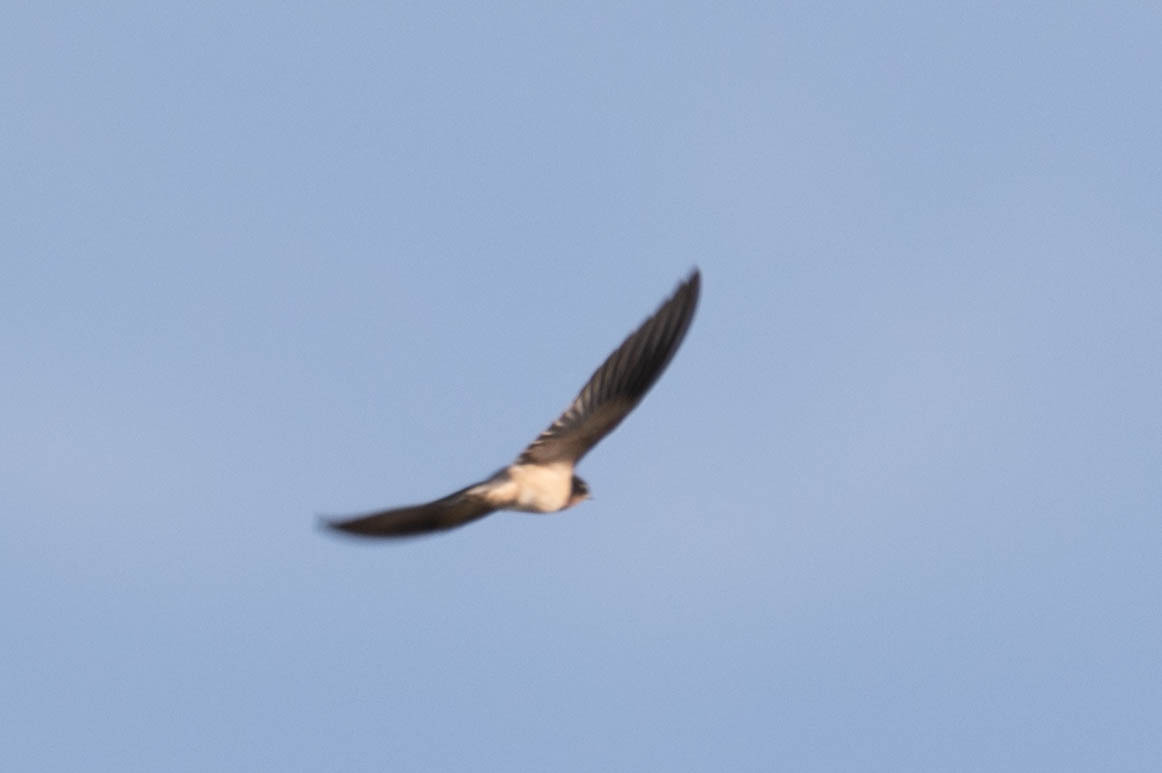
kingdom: Animalia
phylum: Chordata
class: Aves
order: Passeriformes
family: Hirundinidae
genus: Hirundo
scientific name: Hirundo rustica
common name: Barn swallow
